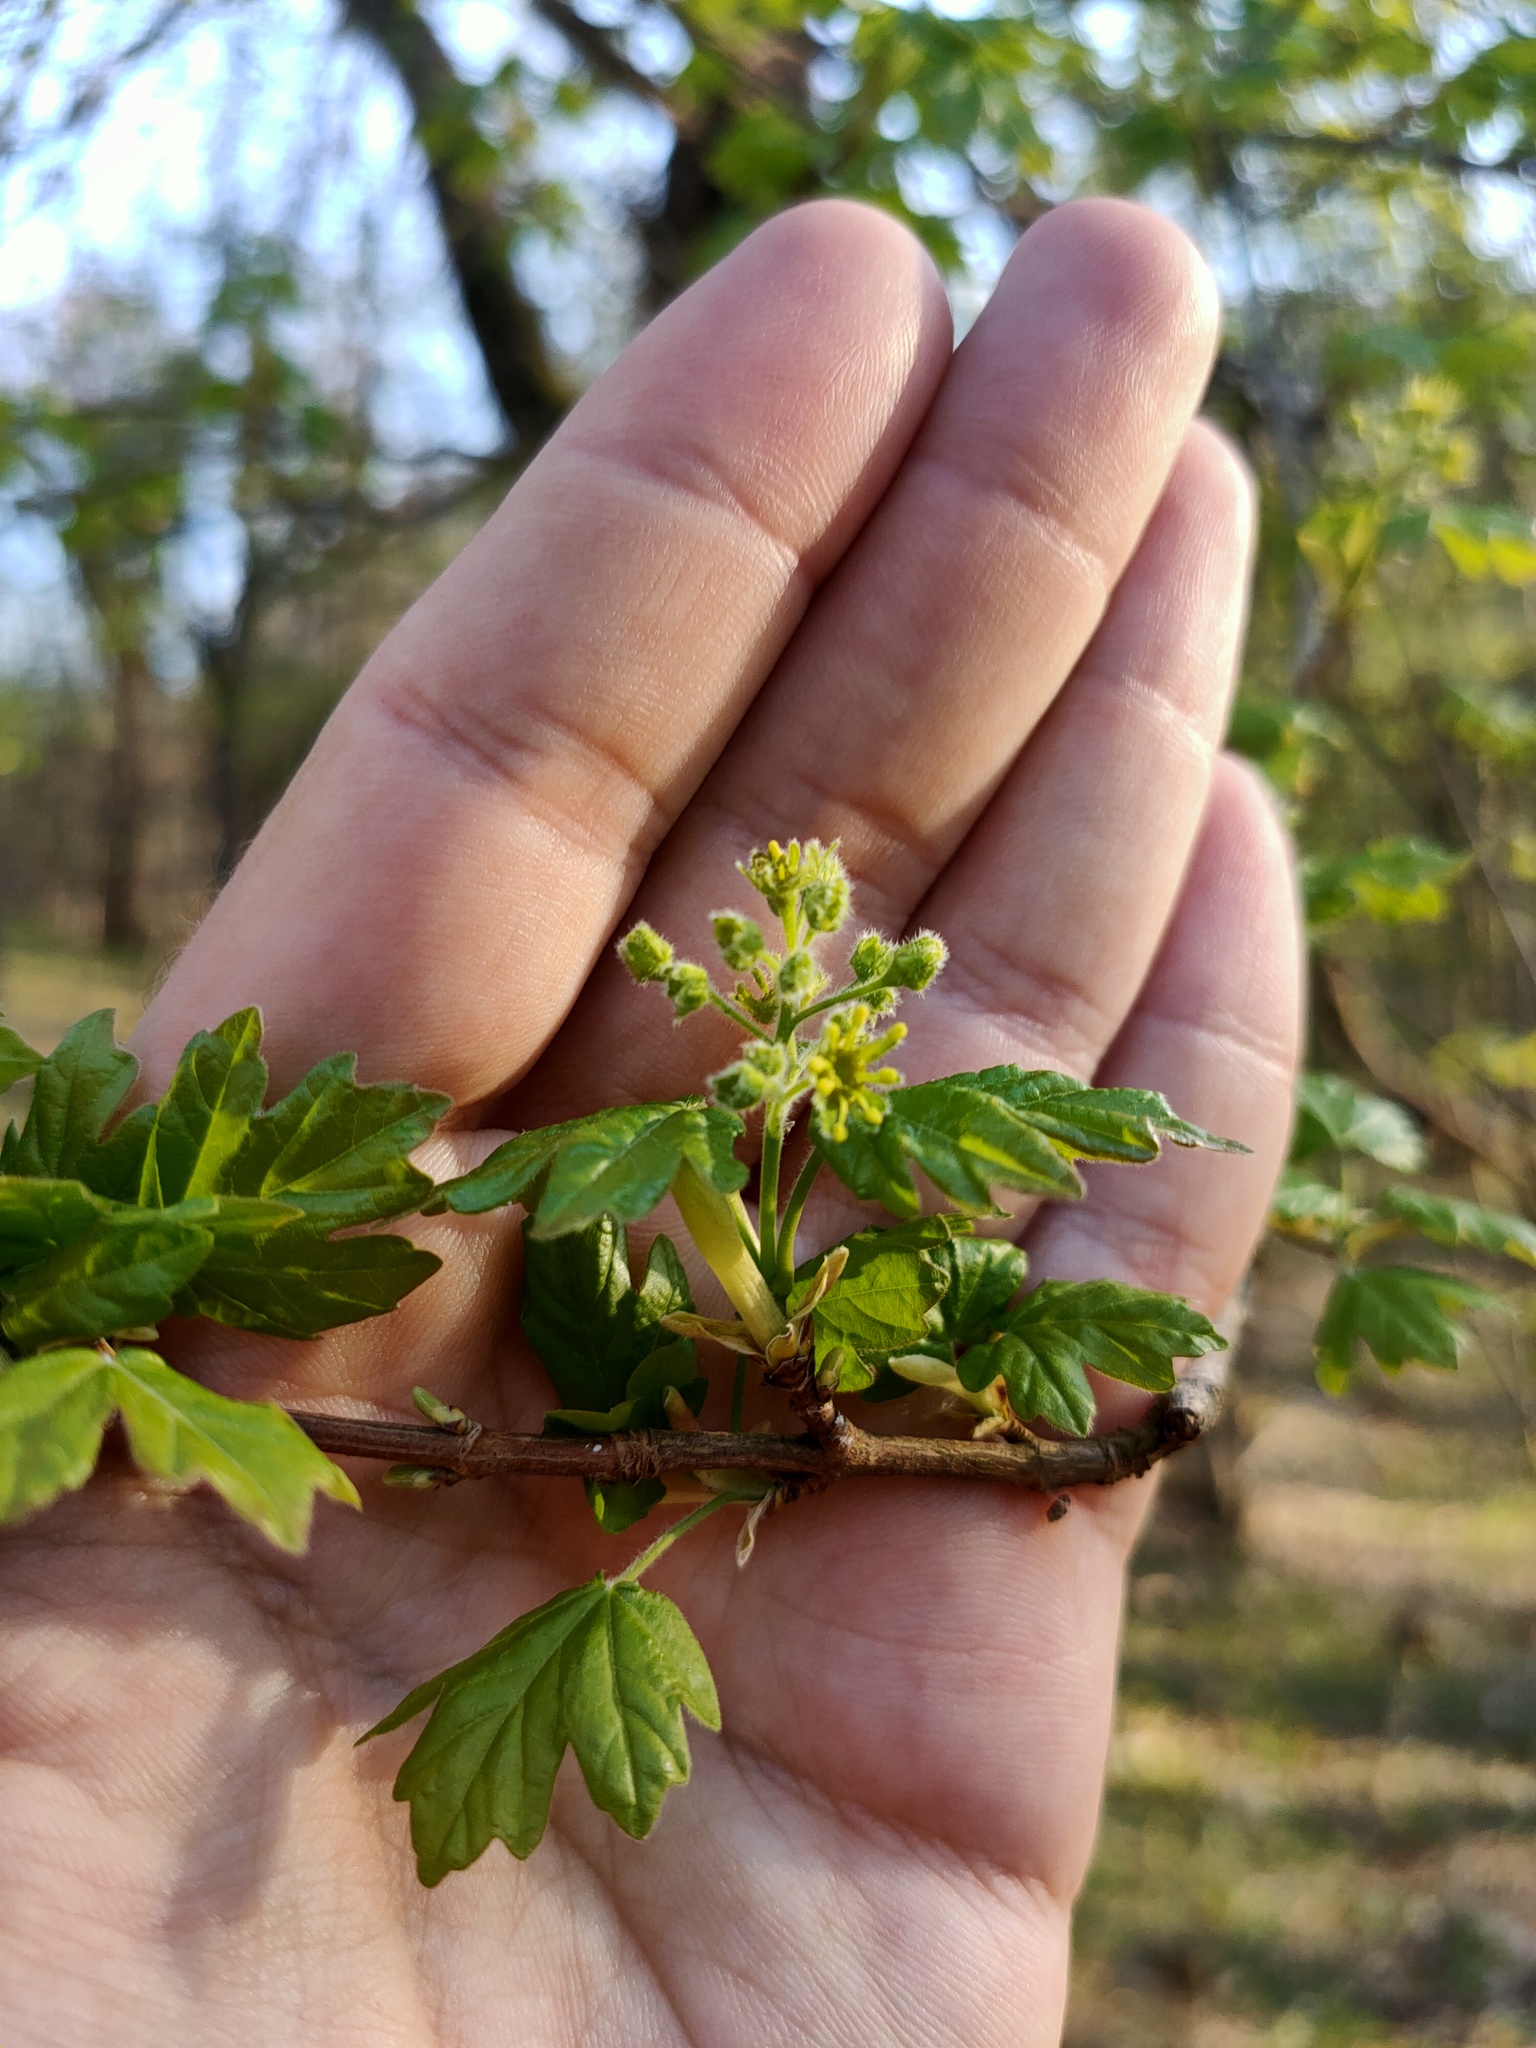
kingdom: Plantae
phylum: Tracheophyta
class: Magnoliopsida
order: Sapindales
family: Sapindaceae
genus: Acer
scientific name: Acer campestre
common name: Field maple
